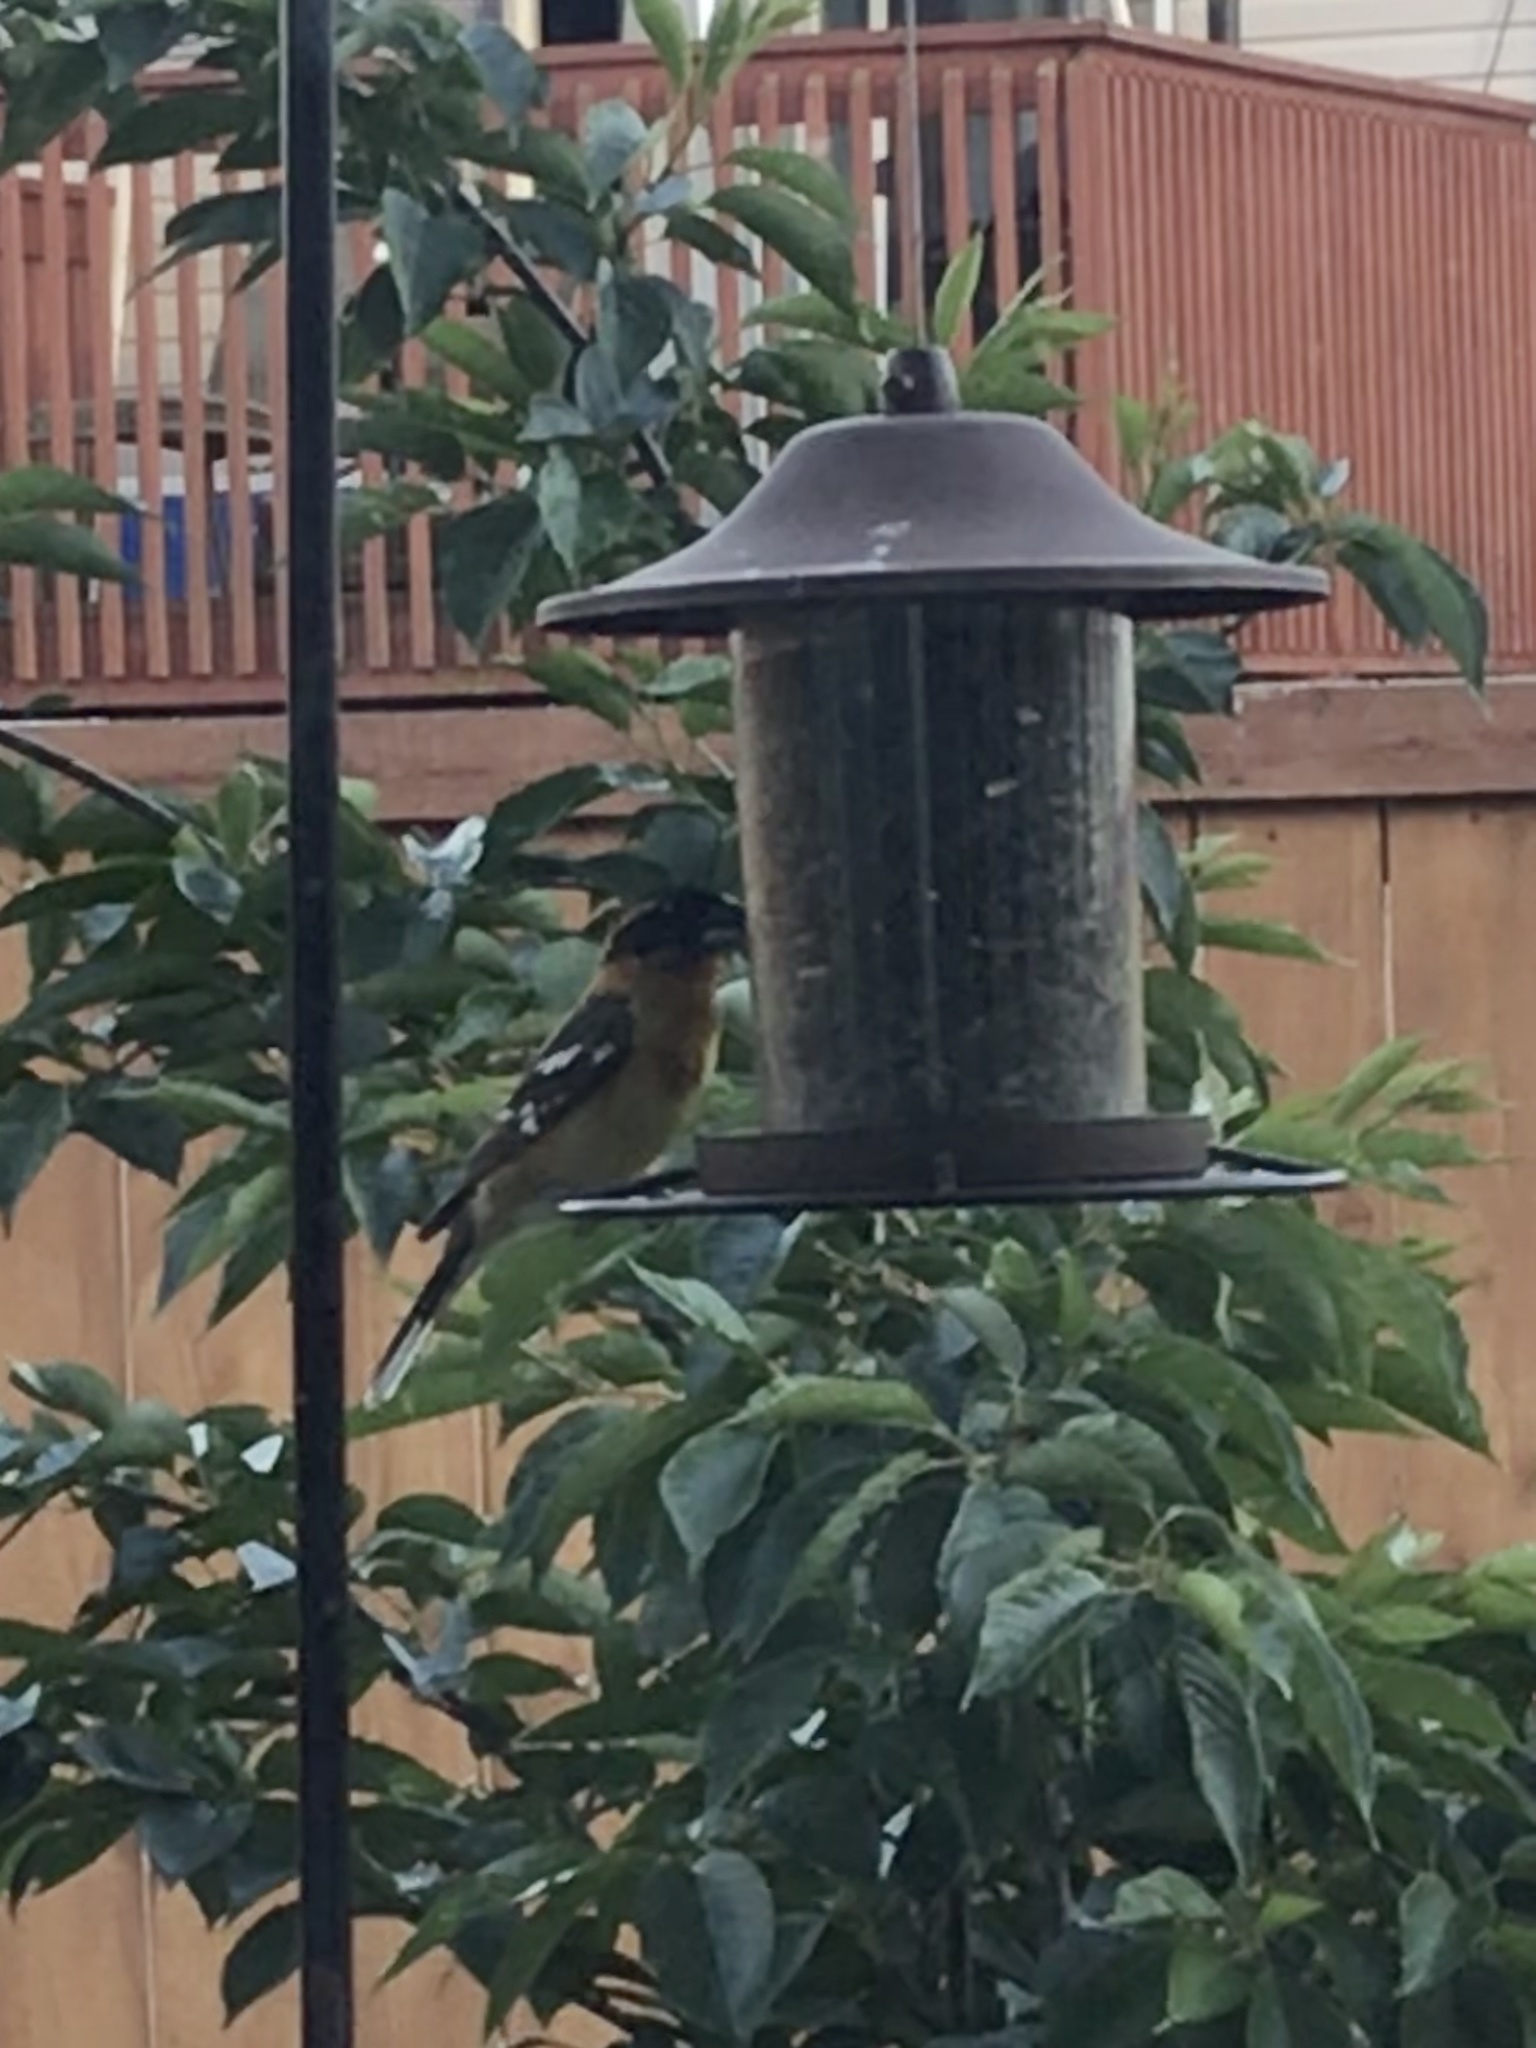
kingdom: Animalia
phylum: Chordata
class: Aves
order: Passeriformes
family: Cardinalidae
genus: Pheucticus
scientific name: Pheucticus melanocephalus
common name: Black-headed grosbeak
